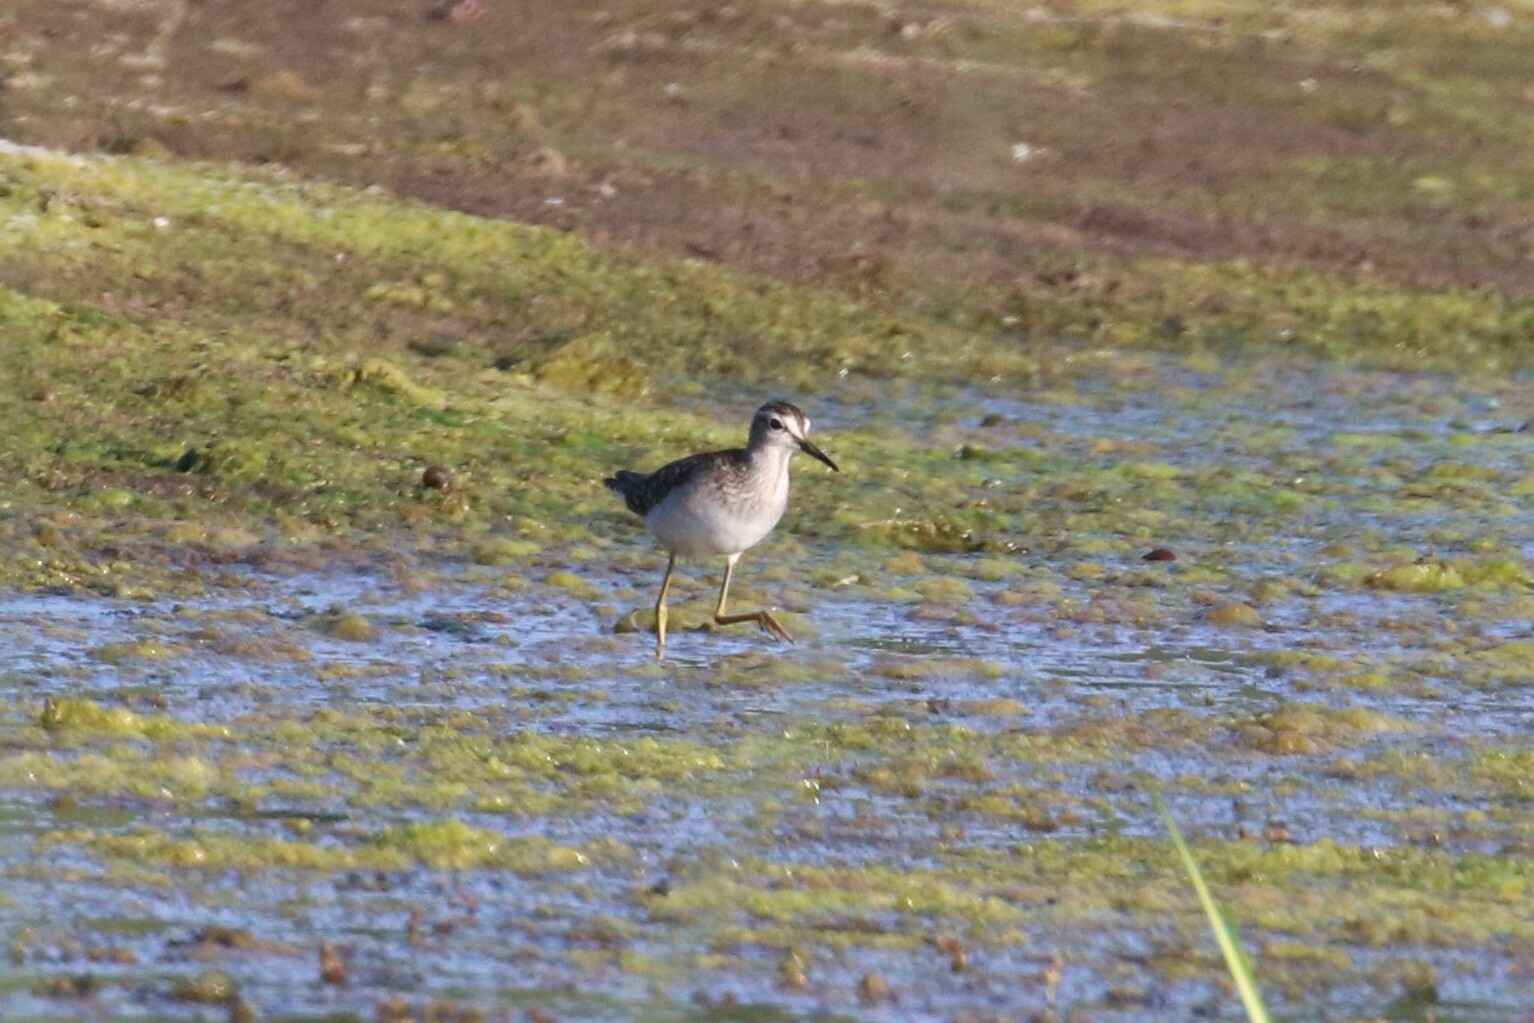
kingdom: Animalia
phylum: Chordata
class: Aves
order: Charadriiformes
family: Scolopacidae
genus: Tringa
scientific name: Tringa glareola
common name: Wood sandpiper
